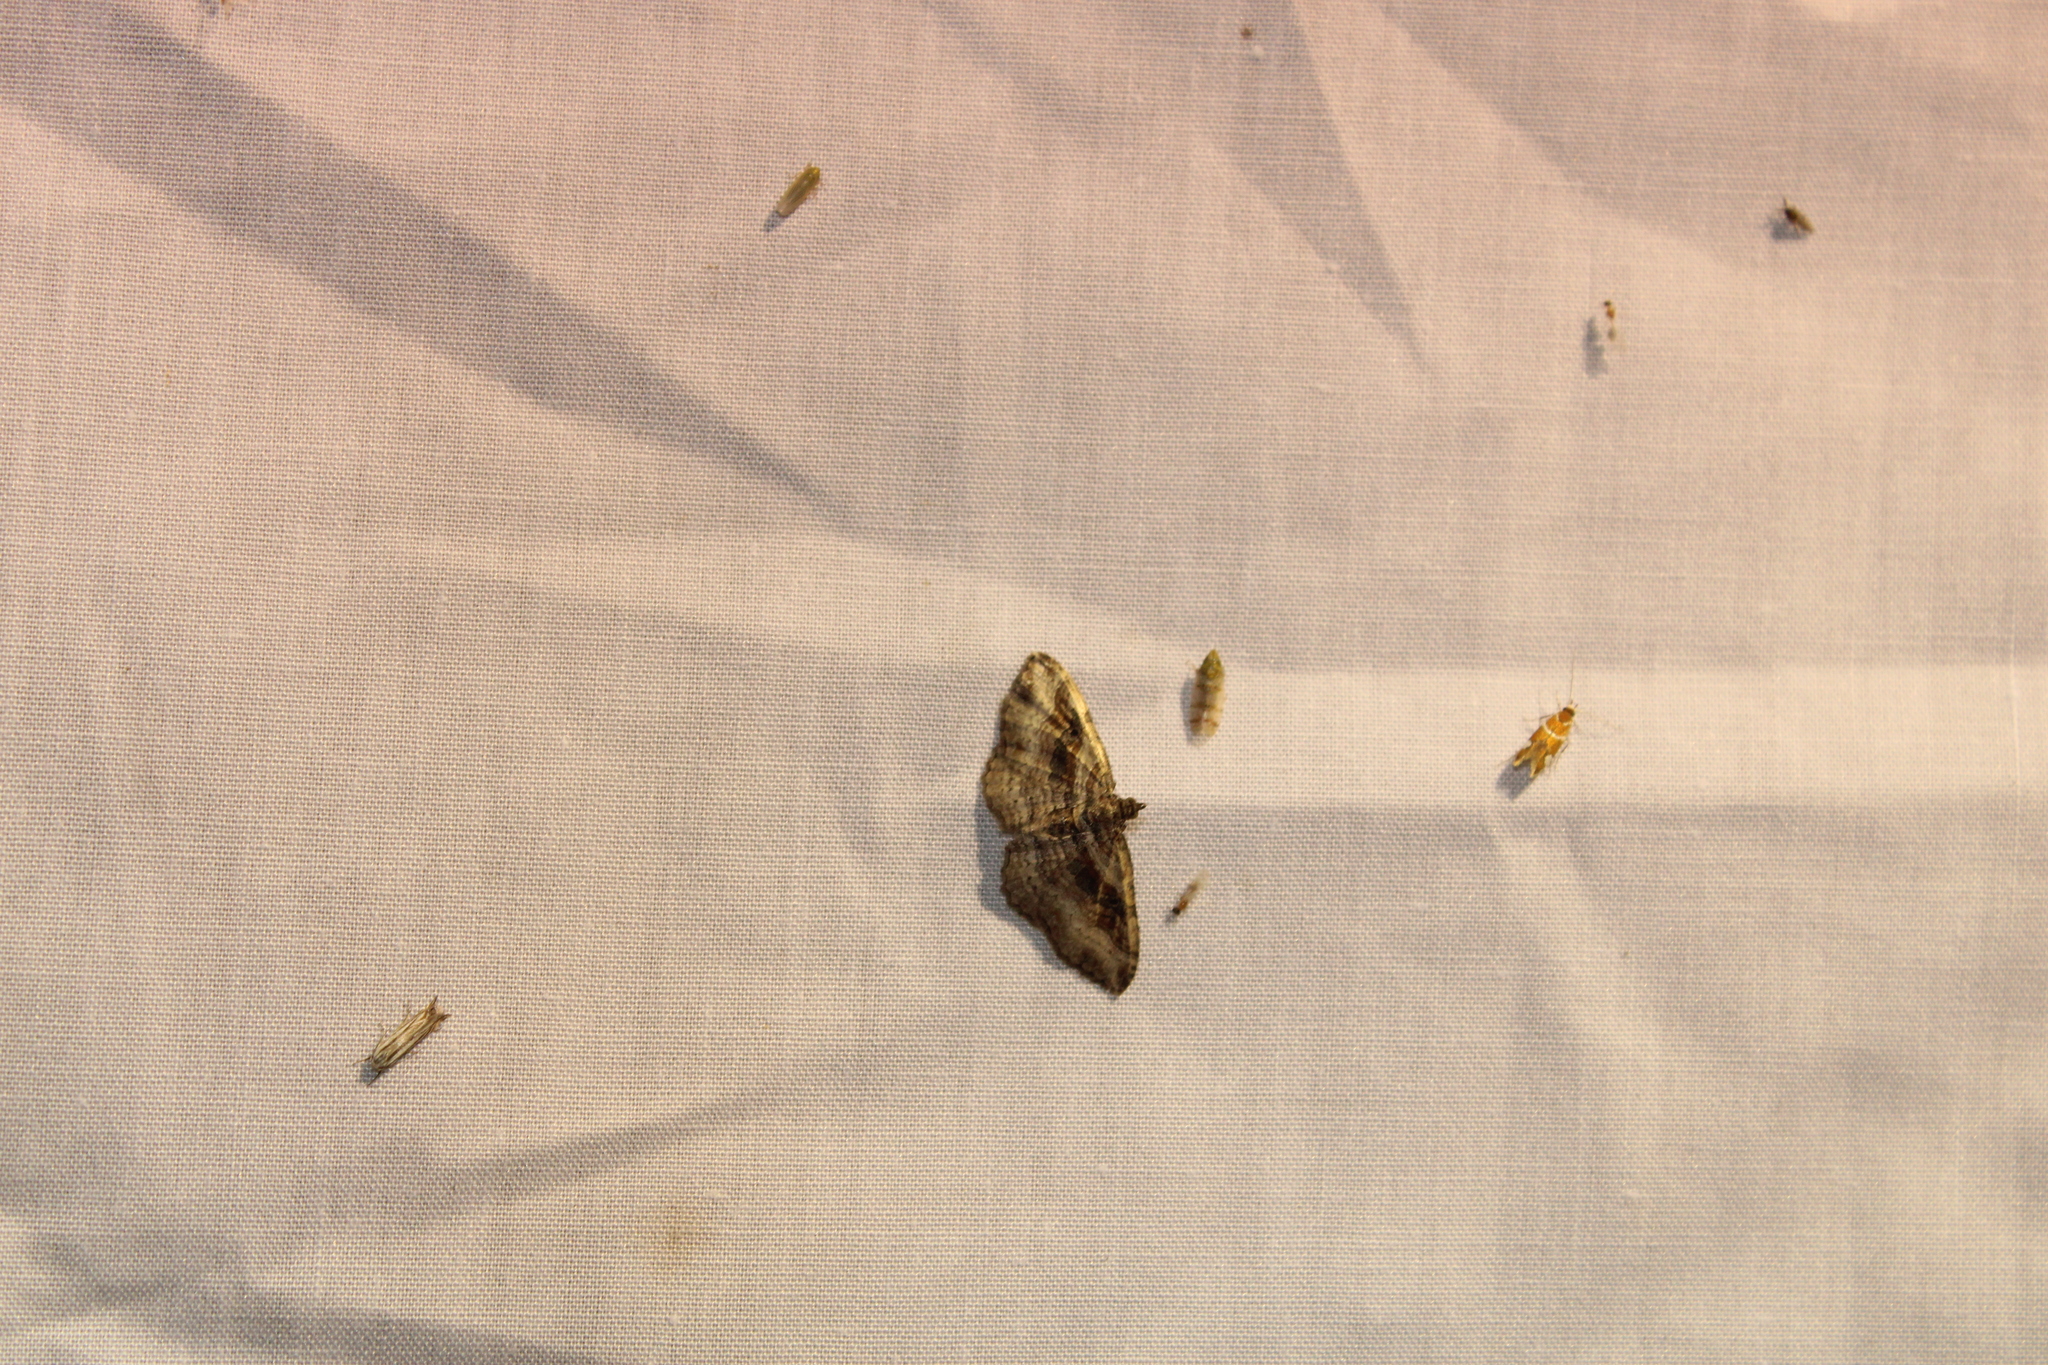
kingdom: Animalia
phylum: Arthropoda
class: Insecta
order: Lepidoptera
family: Geometridae
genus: Costaconvexa
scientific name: Costaconvexa centrostrigaria
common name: Bent-line carpet
